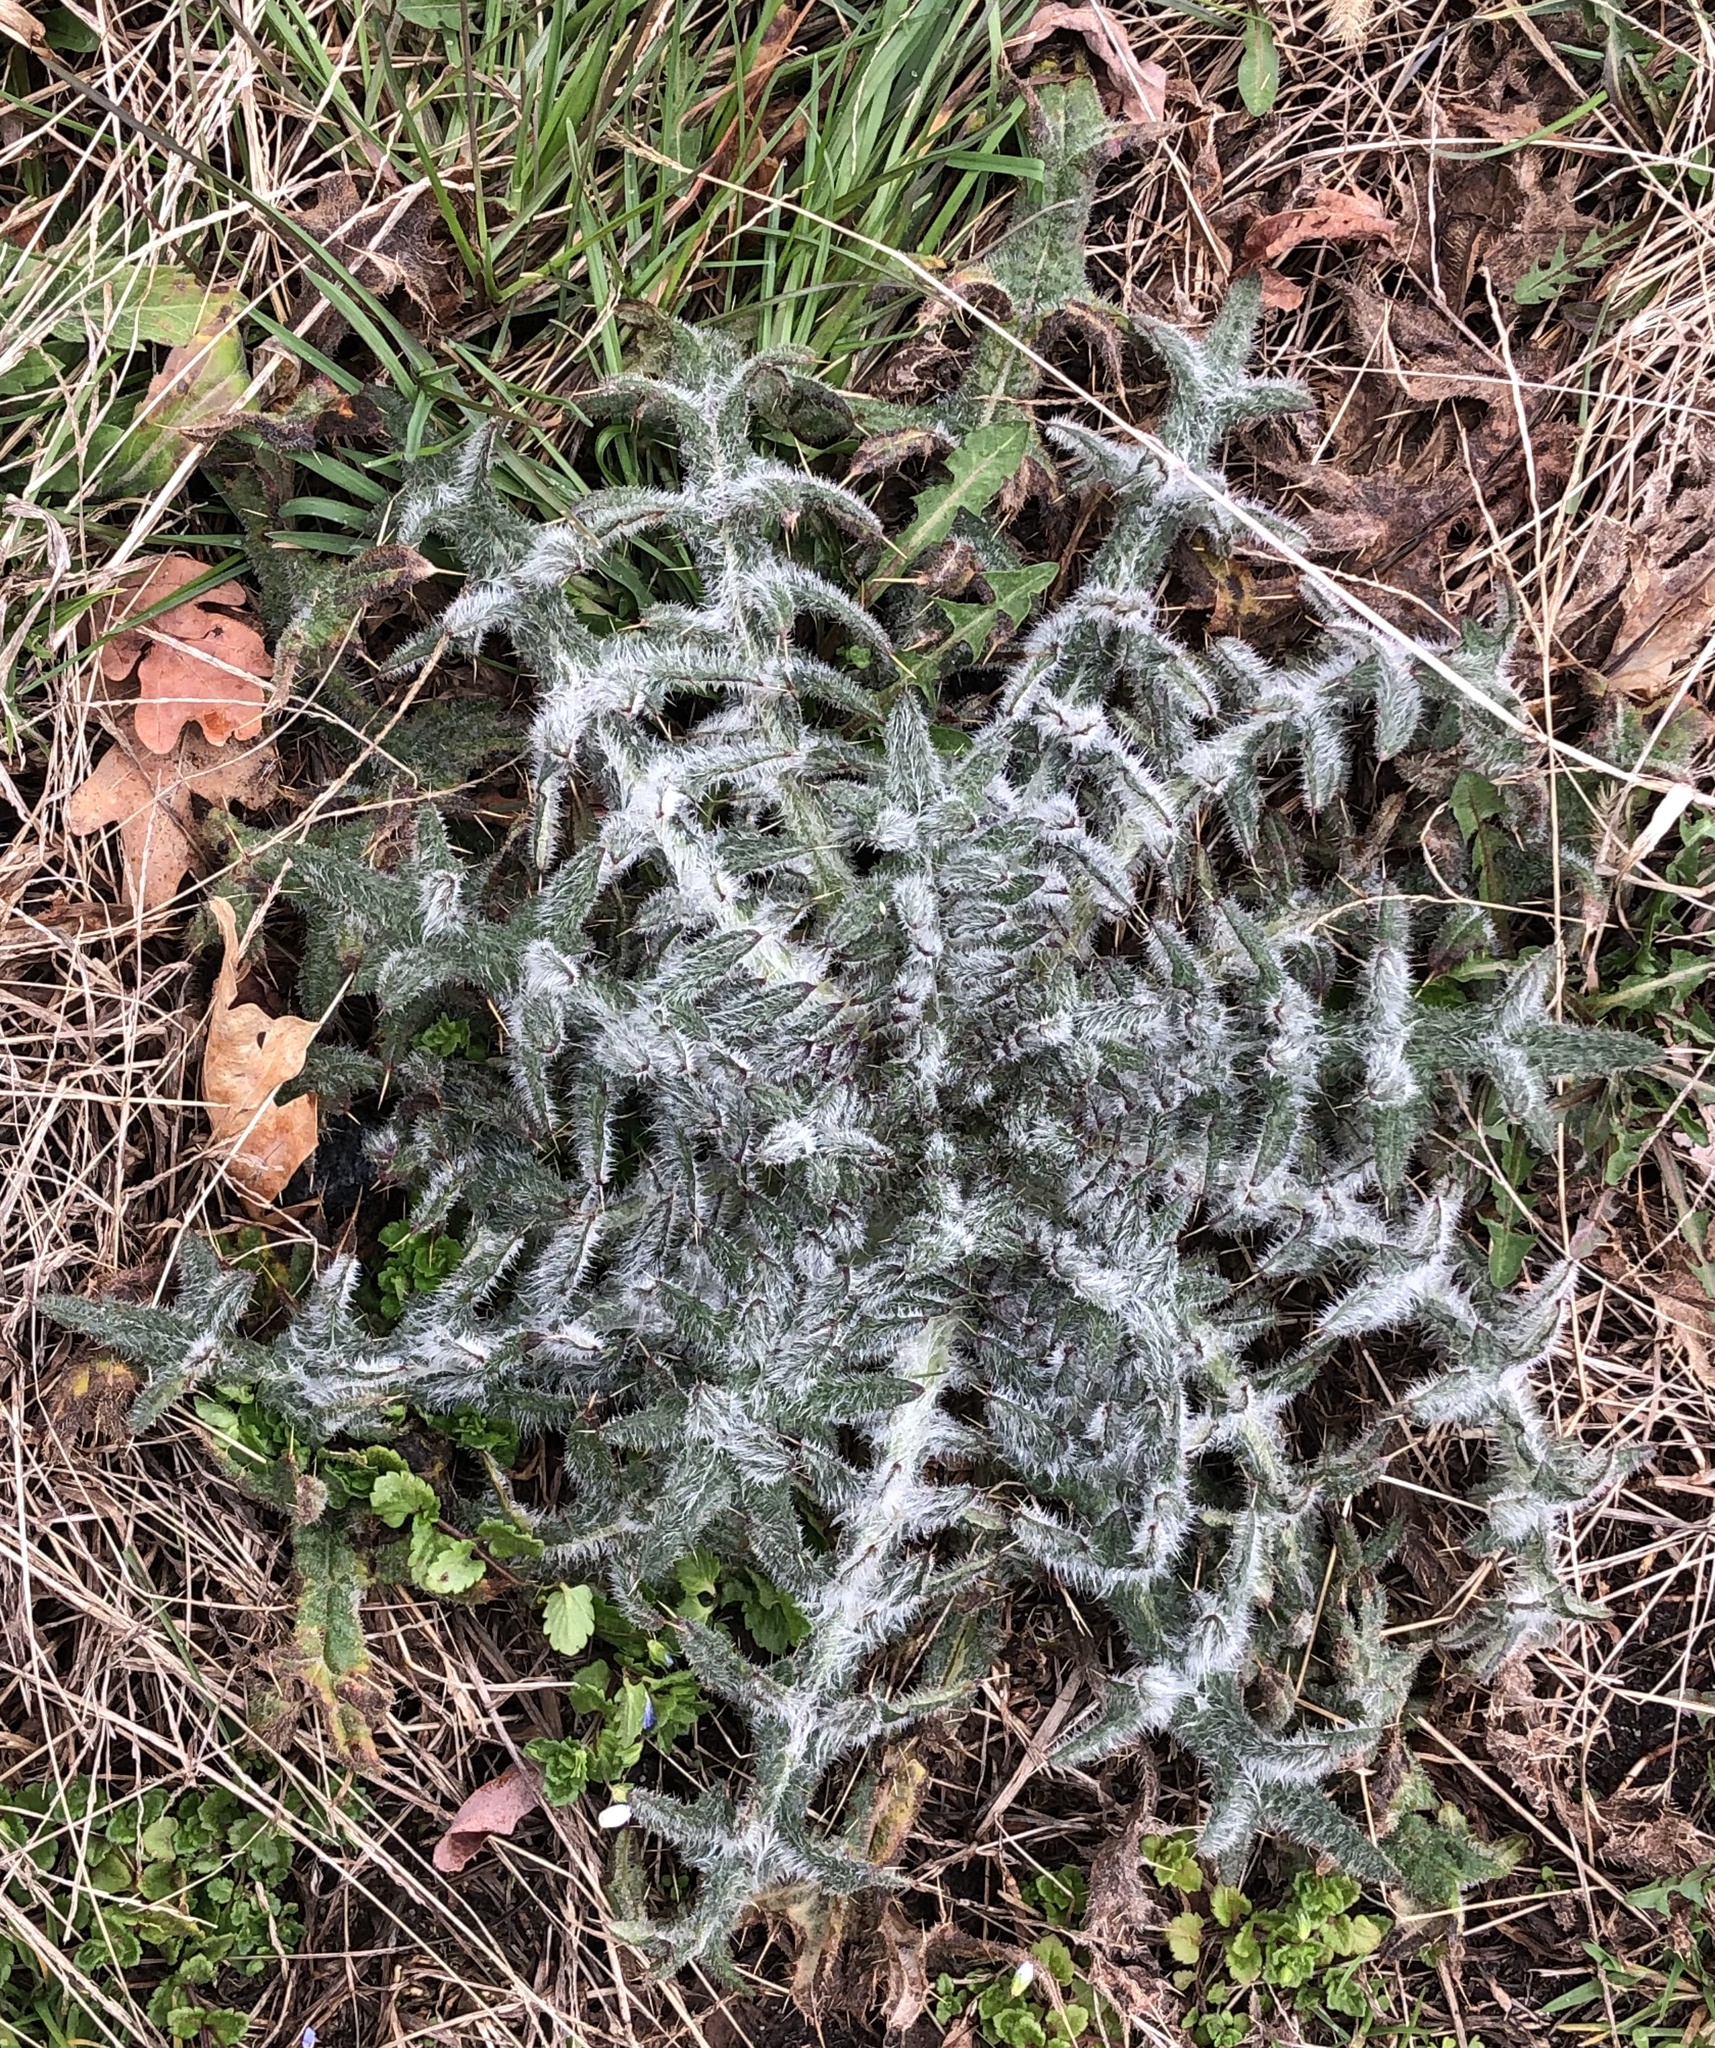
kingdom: Plantae
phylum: Tracheophyta
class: Magnoliopsida
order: Asterales
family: Asteraceae
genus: Cirsium
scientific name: Cirsium vulgare
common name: Bull thistle
